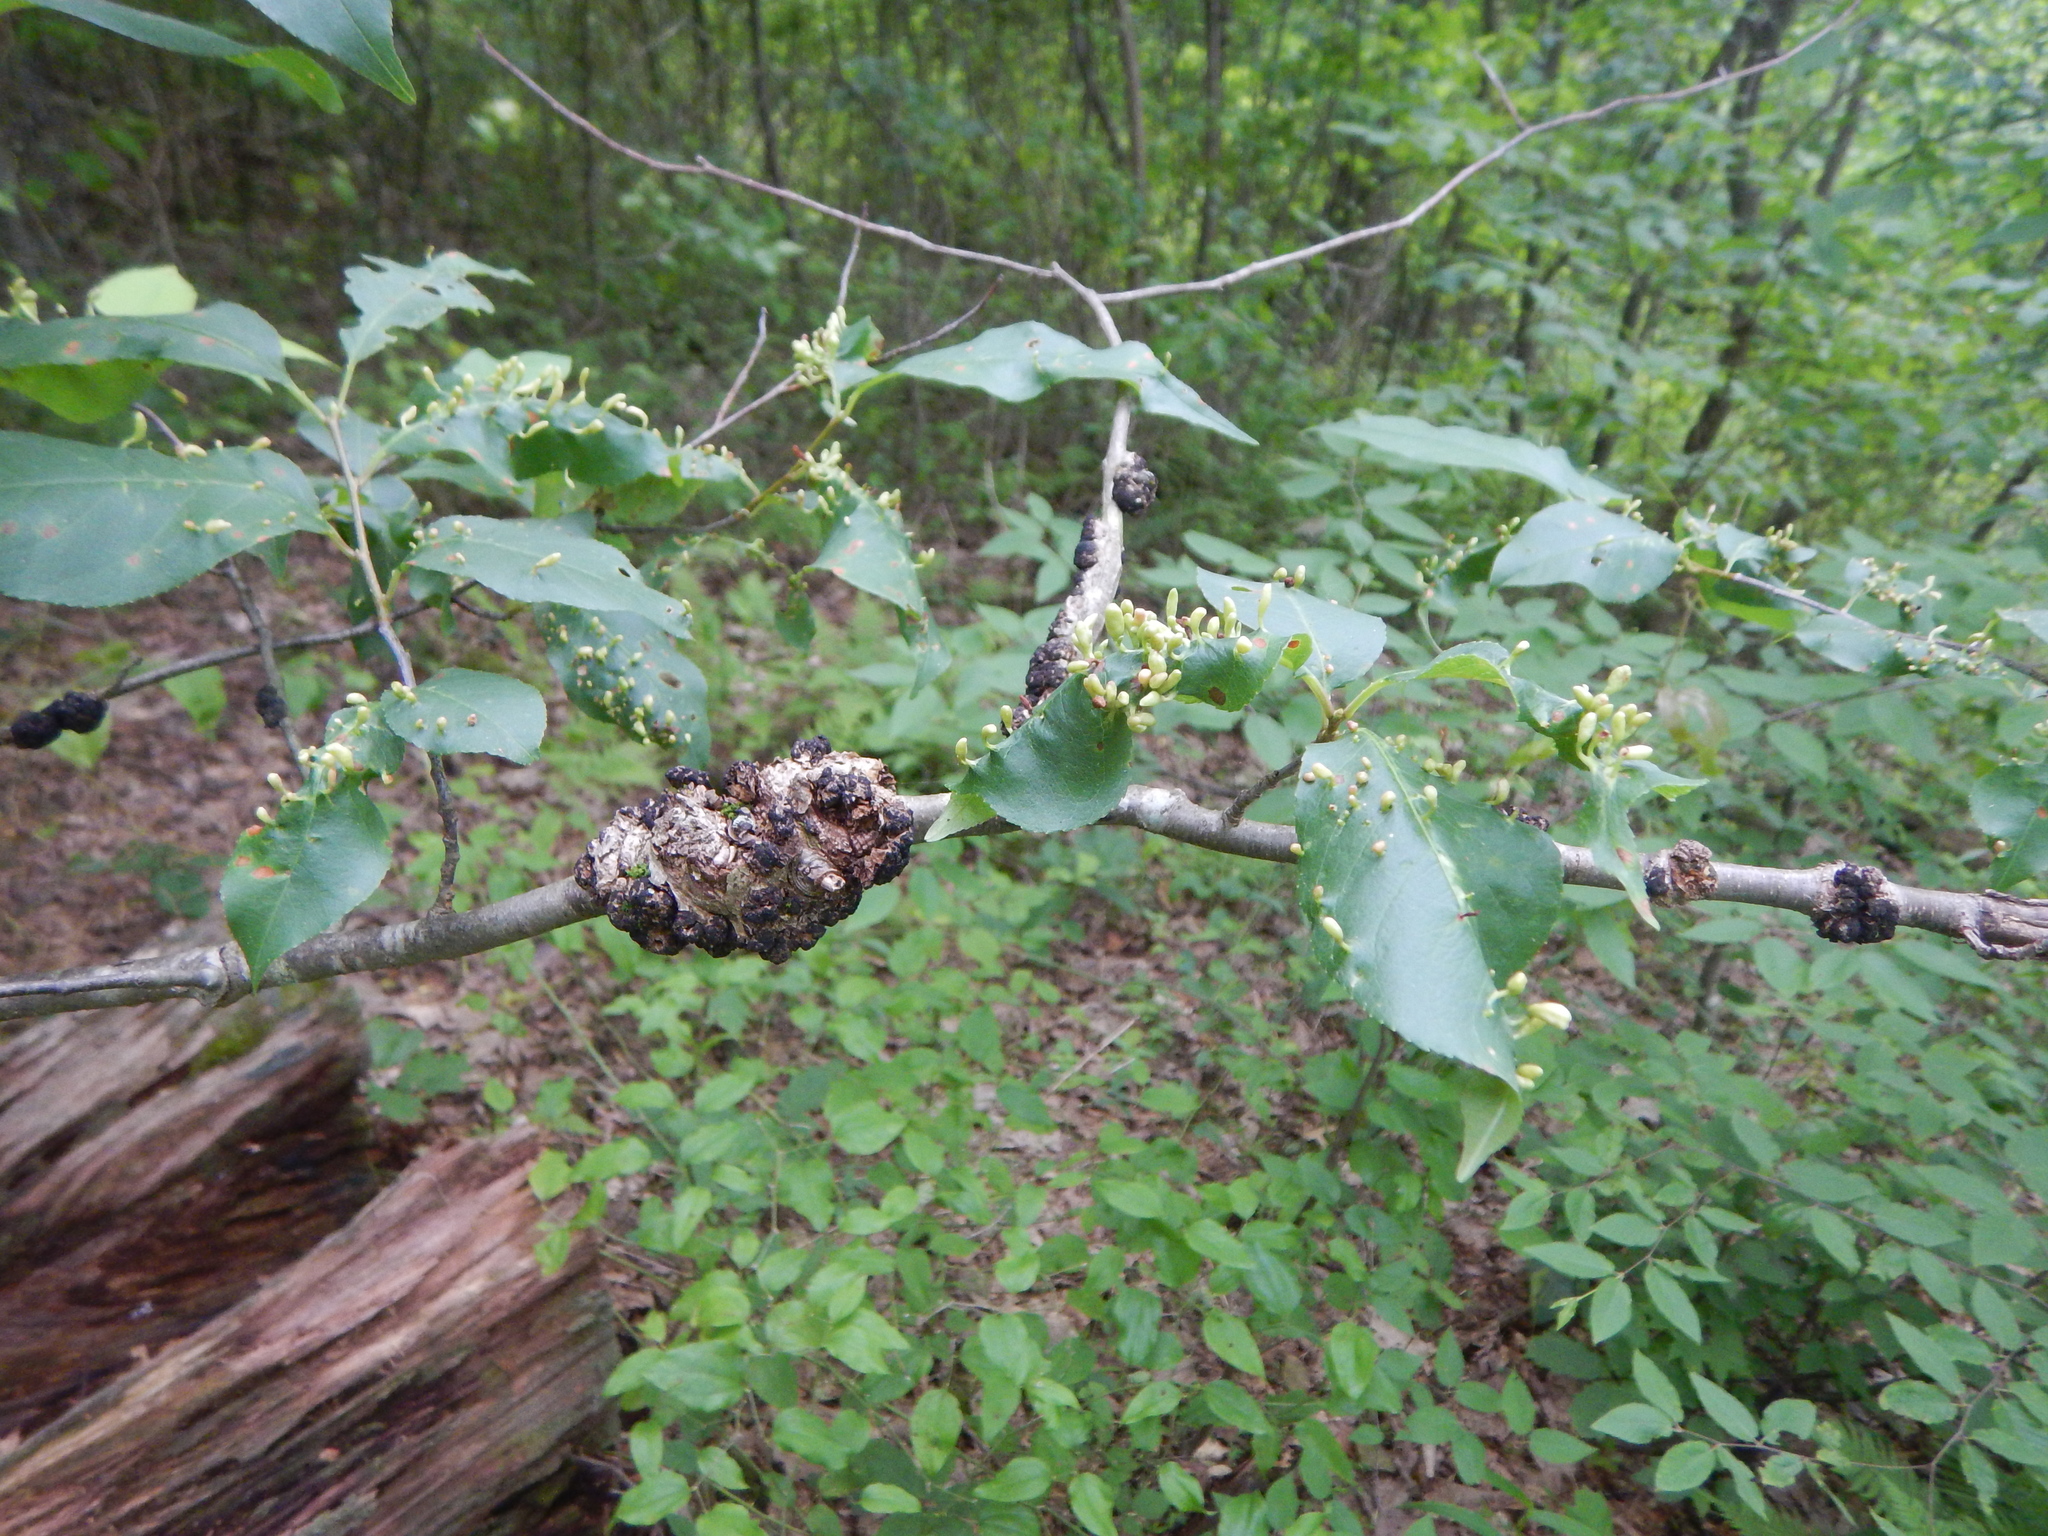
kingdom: Animalia
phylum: Arthropoda
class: Arachnida
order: Trombidiformes
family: Eriophyidae
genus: Eriophyes
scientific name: Eriophyes
